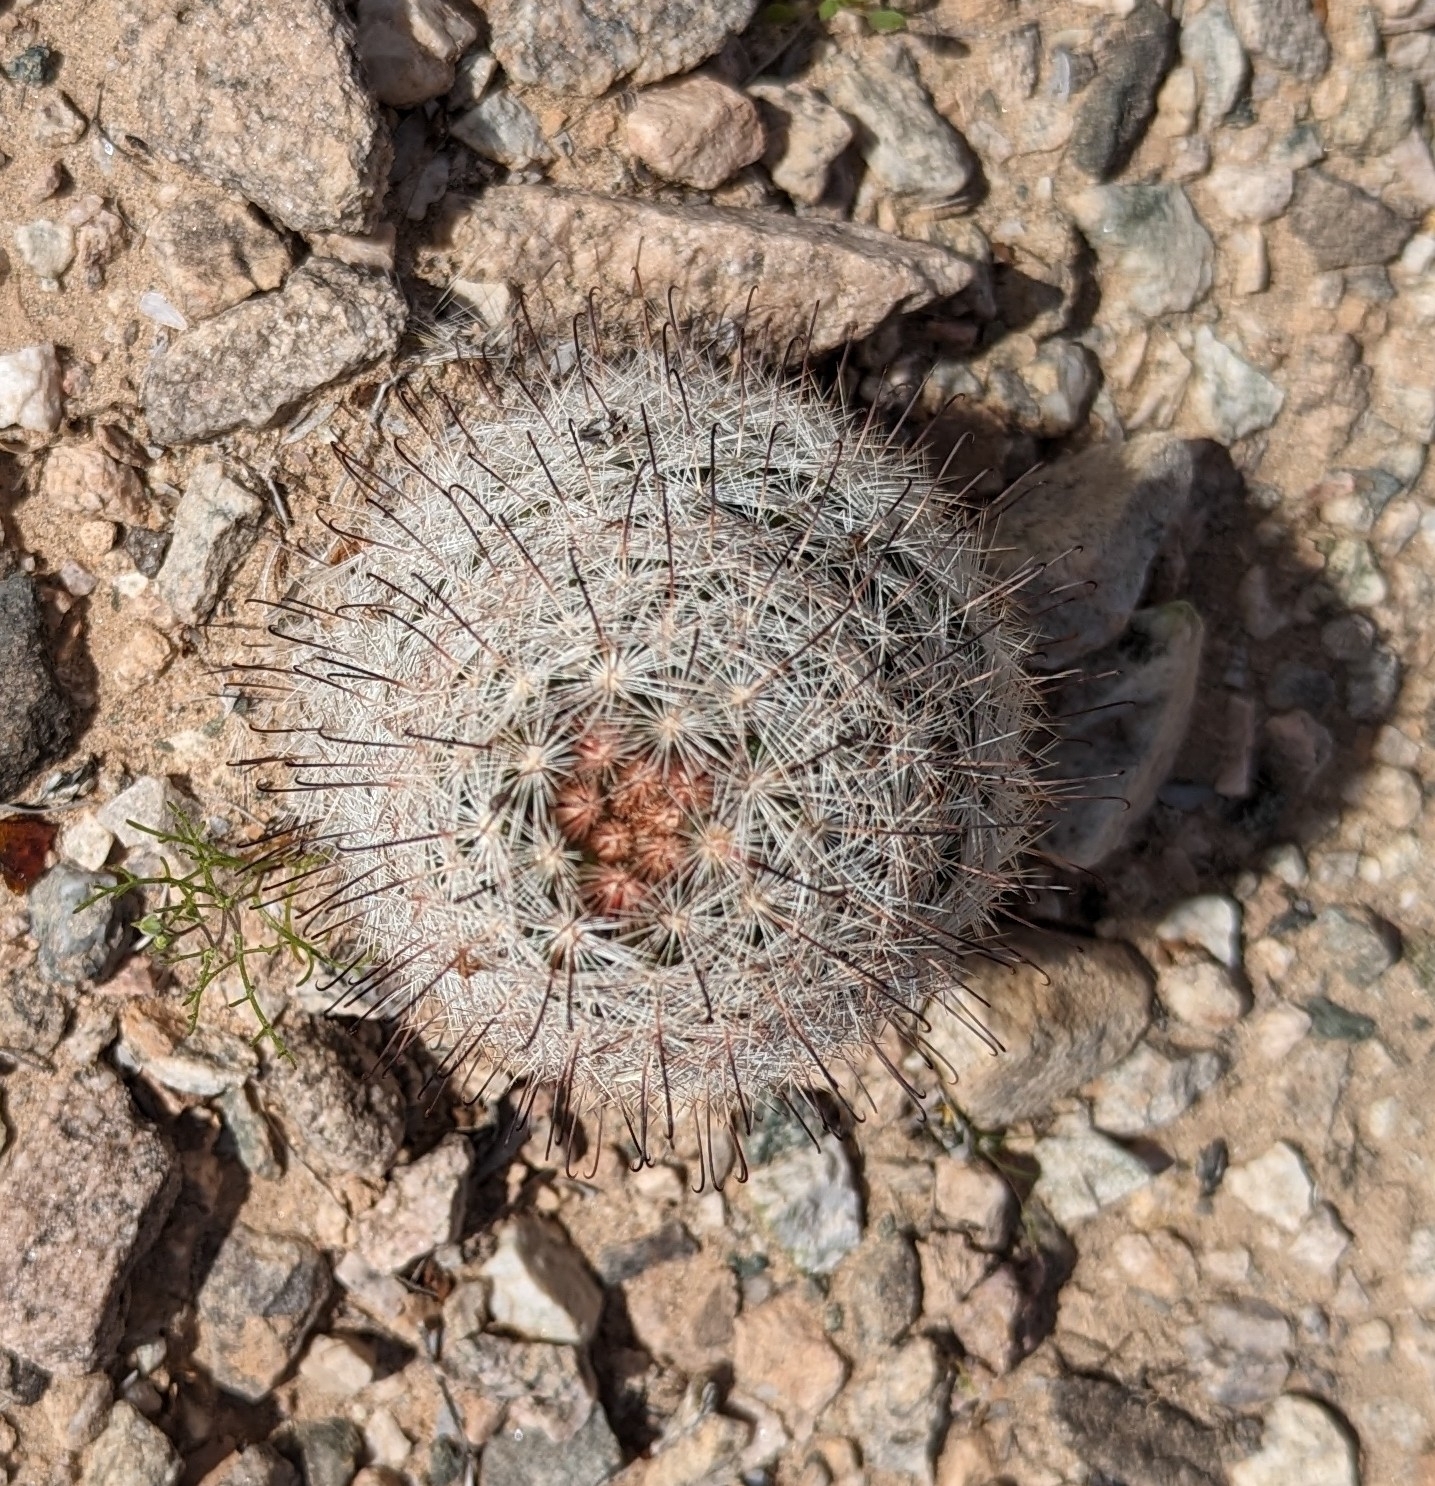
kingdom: Plantae
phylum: Tracheophyta
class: Magnoliopsida
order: Caryophyllales
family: Cactaceae
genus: Cochemiea
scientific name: Cochemiea tetrancistra
